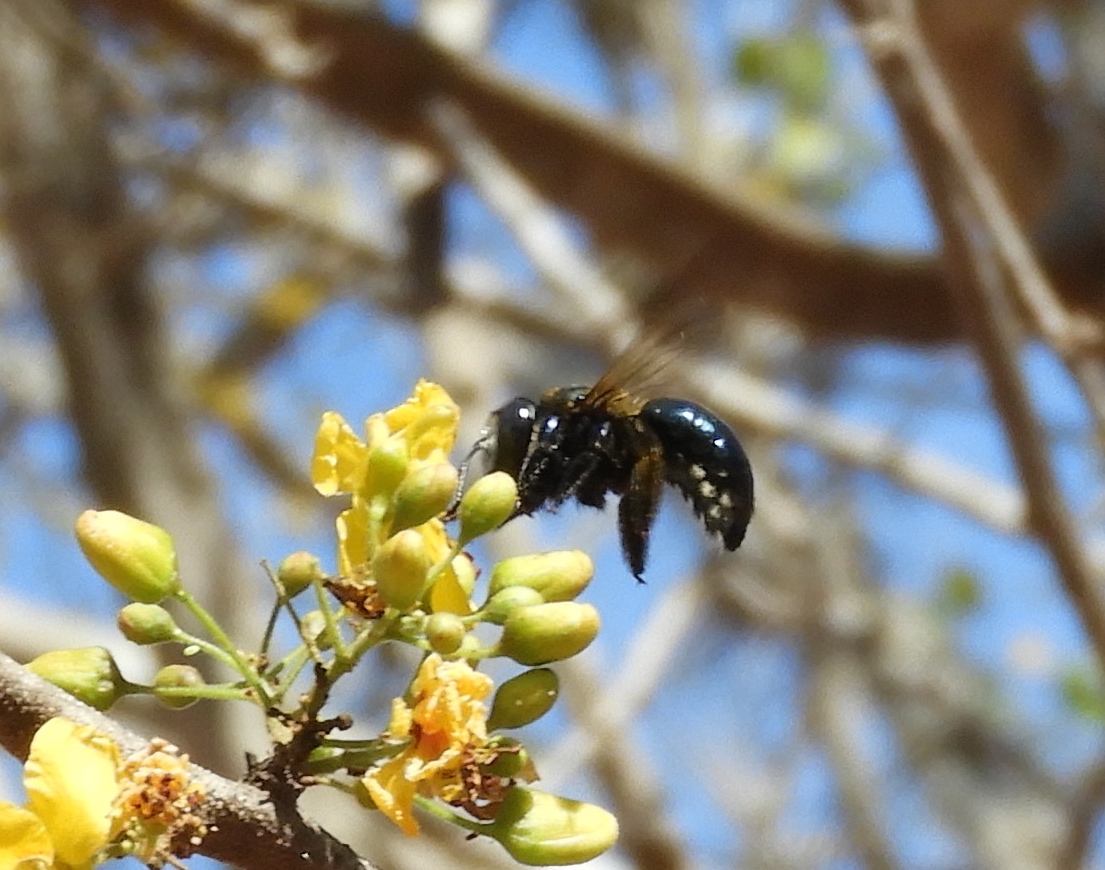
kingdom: Animalia
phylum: Arthropoda
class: Insecta
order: Hymenoptera
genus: Schonnherria
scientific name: Schonnherria
